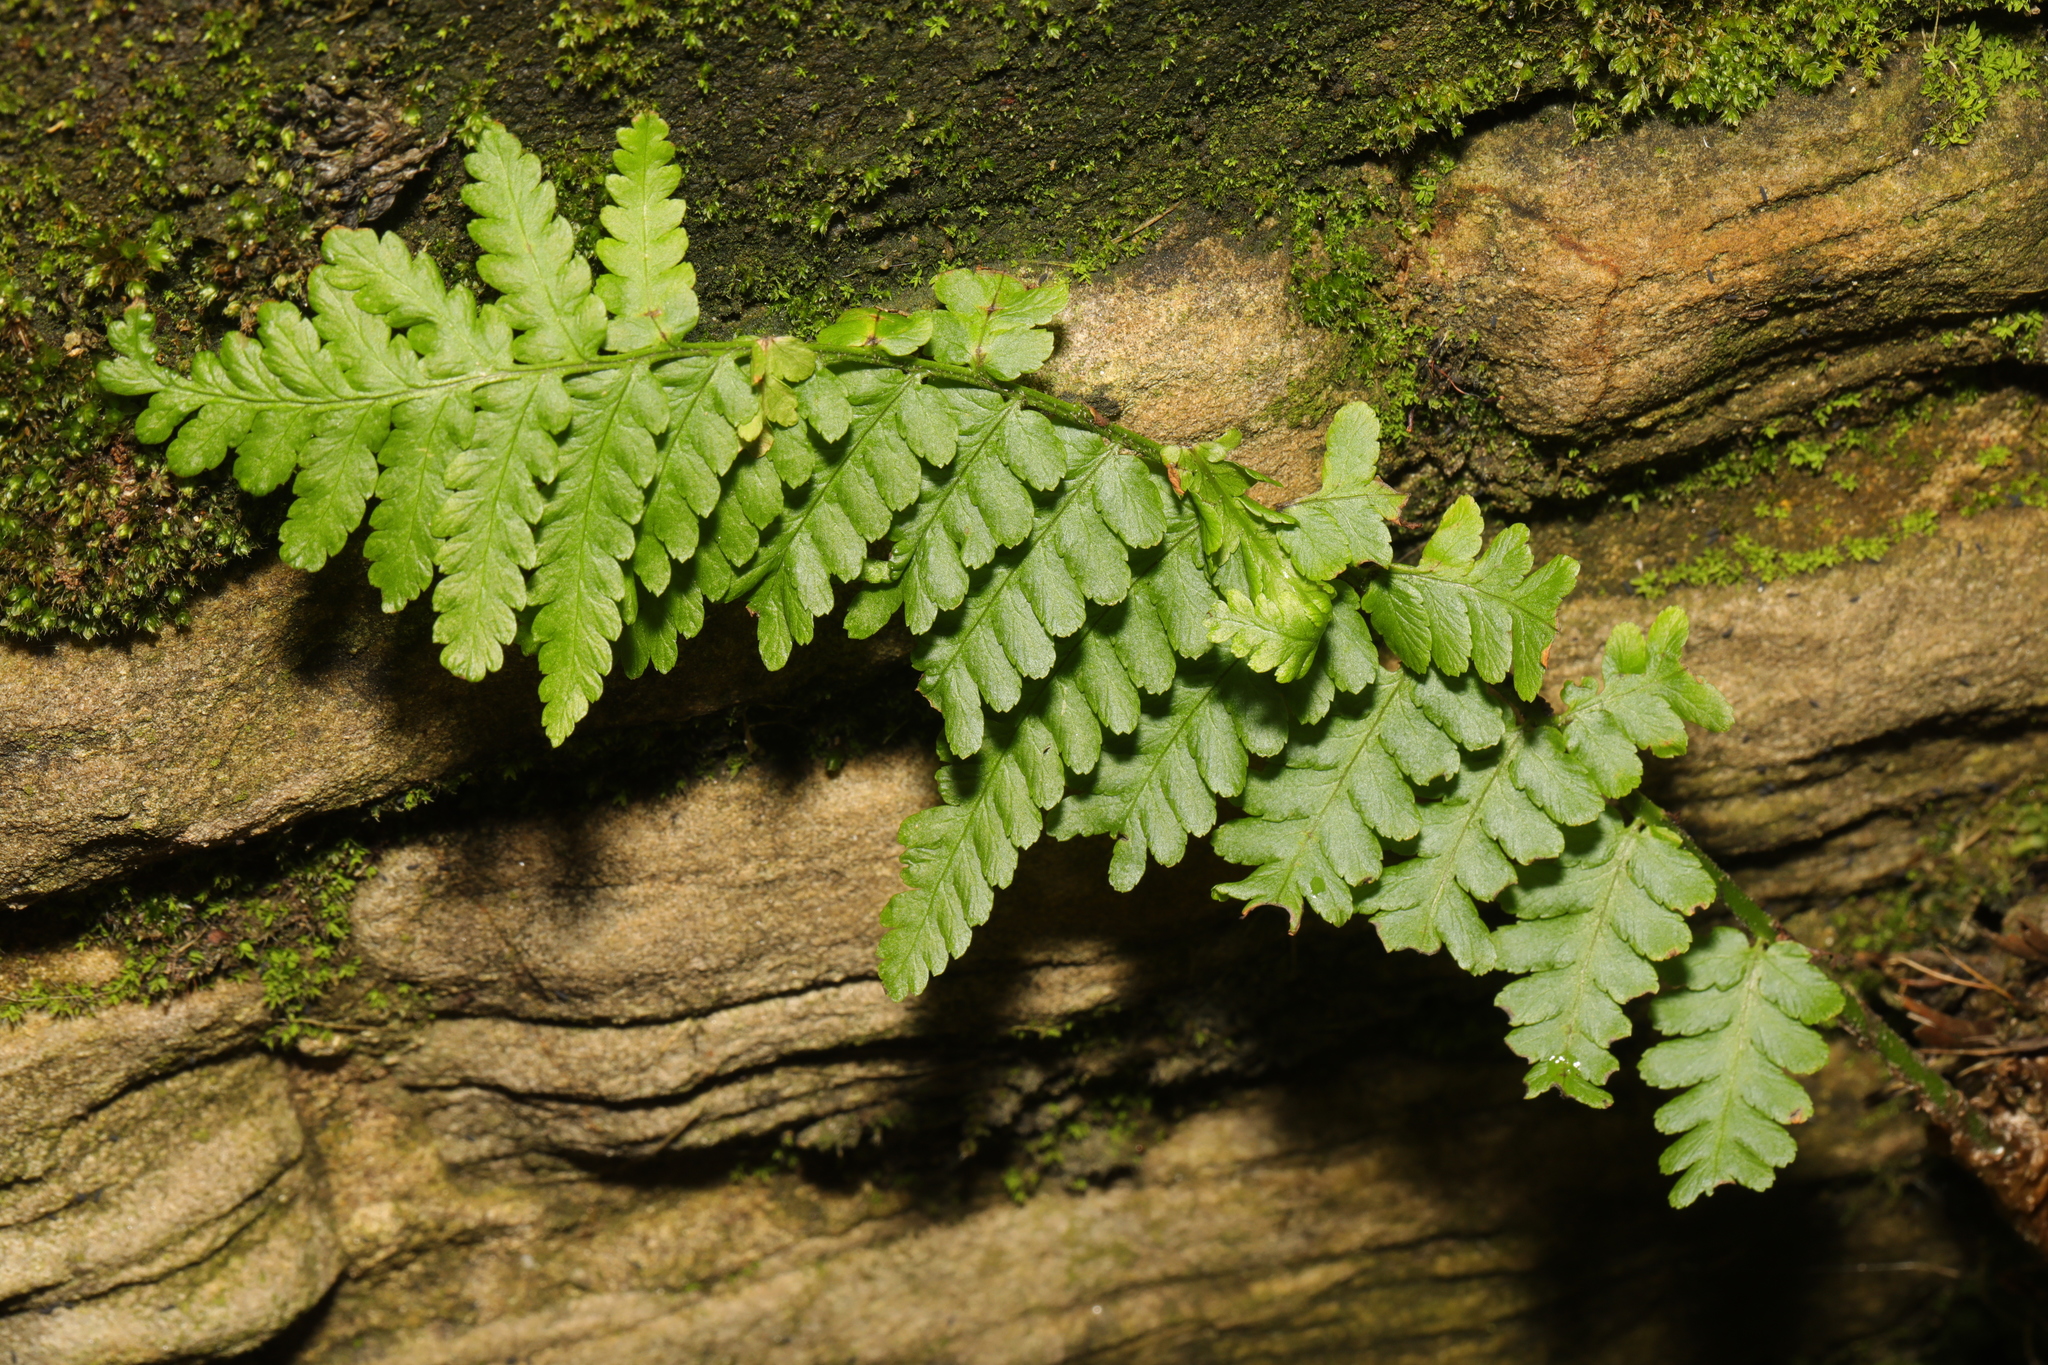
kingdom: Plantae
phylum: Tracheophyta
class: Polypodiopsida
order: Polypodiales
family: Dryopteridaceae
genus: Dryopteris
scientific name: Dryopteris filix-mas
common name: Male fern
